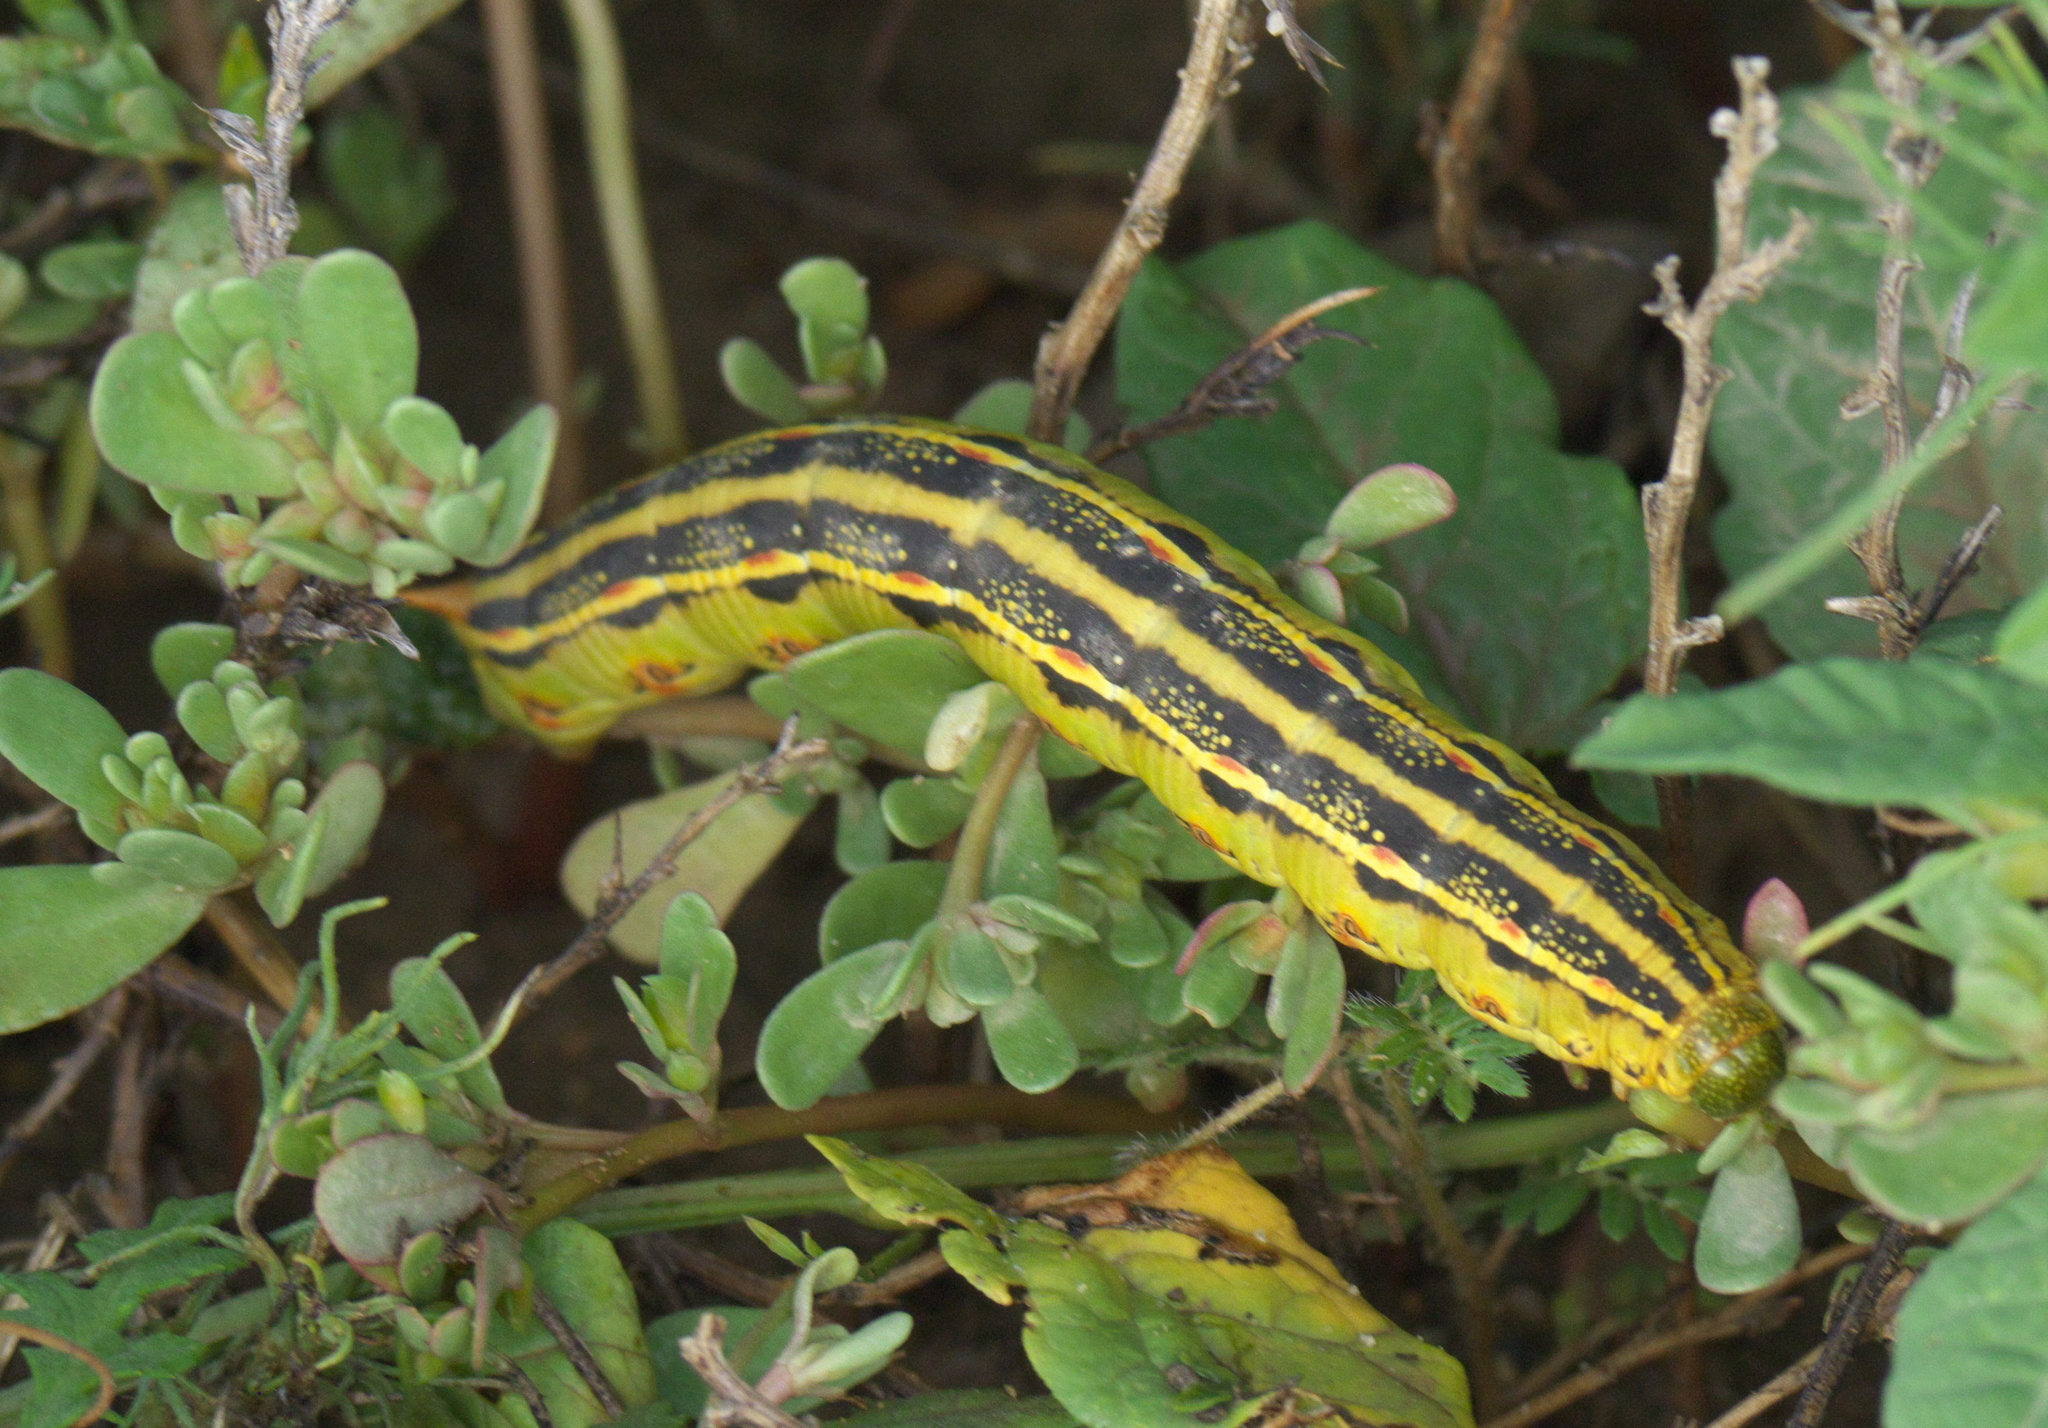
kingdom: Animalia
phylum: Arthropoda
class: Insecta
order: Lepidoptera
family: Sphingidae
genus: Hyles
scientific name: Hyles lineata
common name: White-lined sphinx
